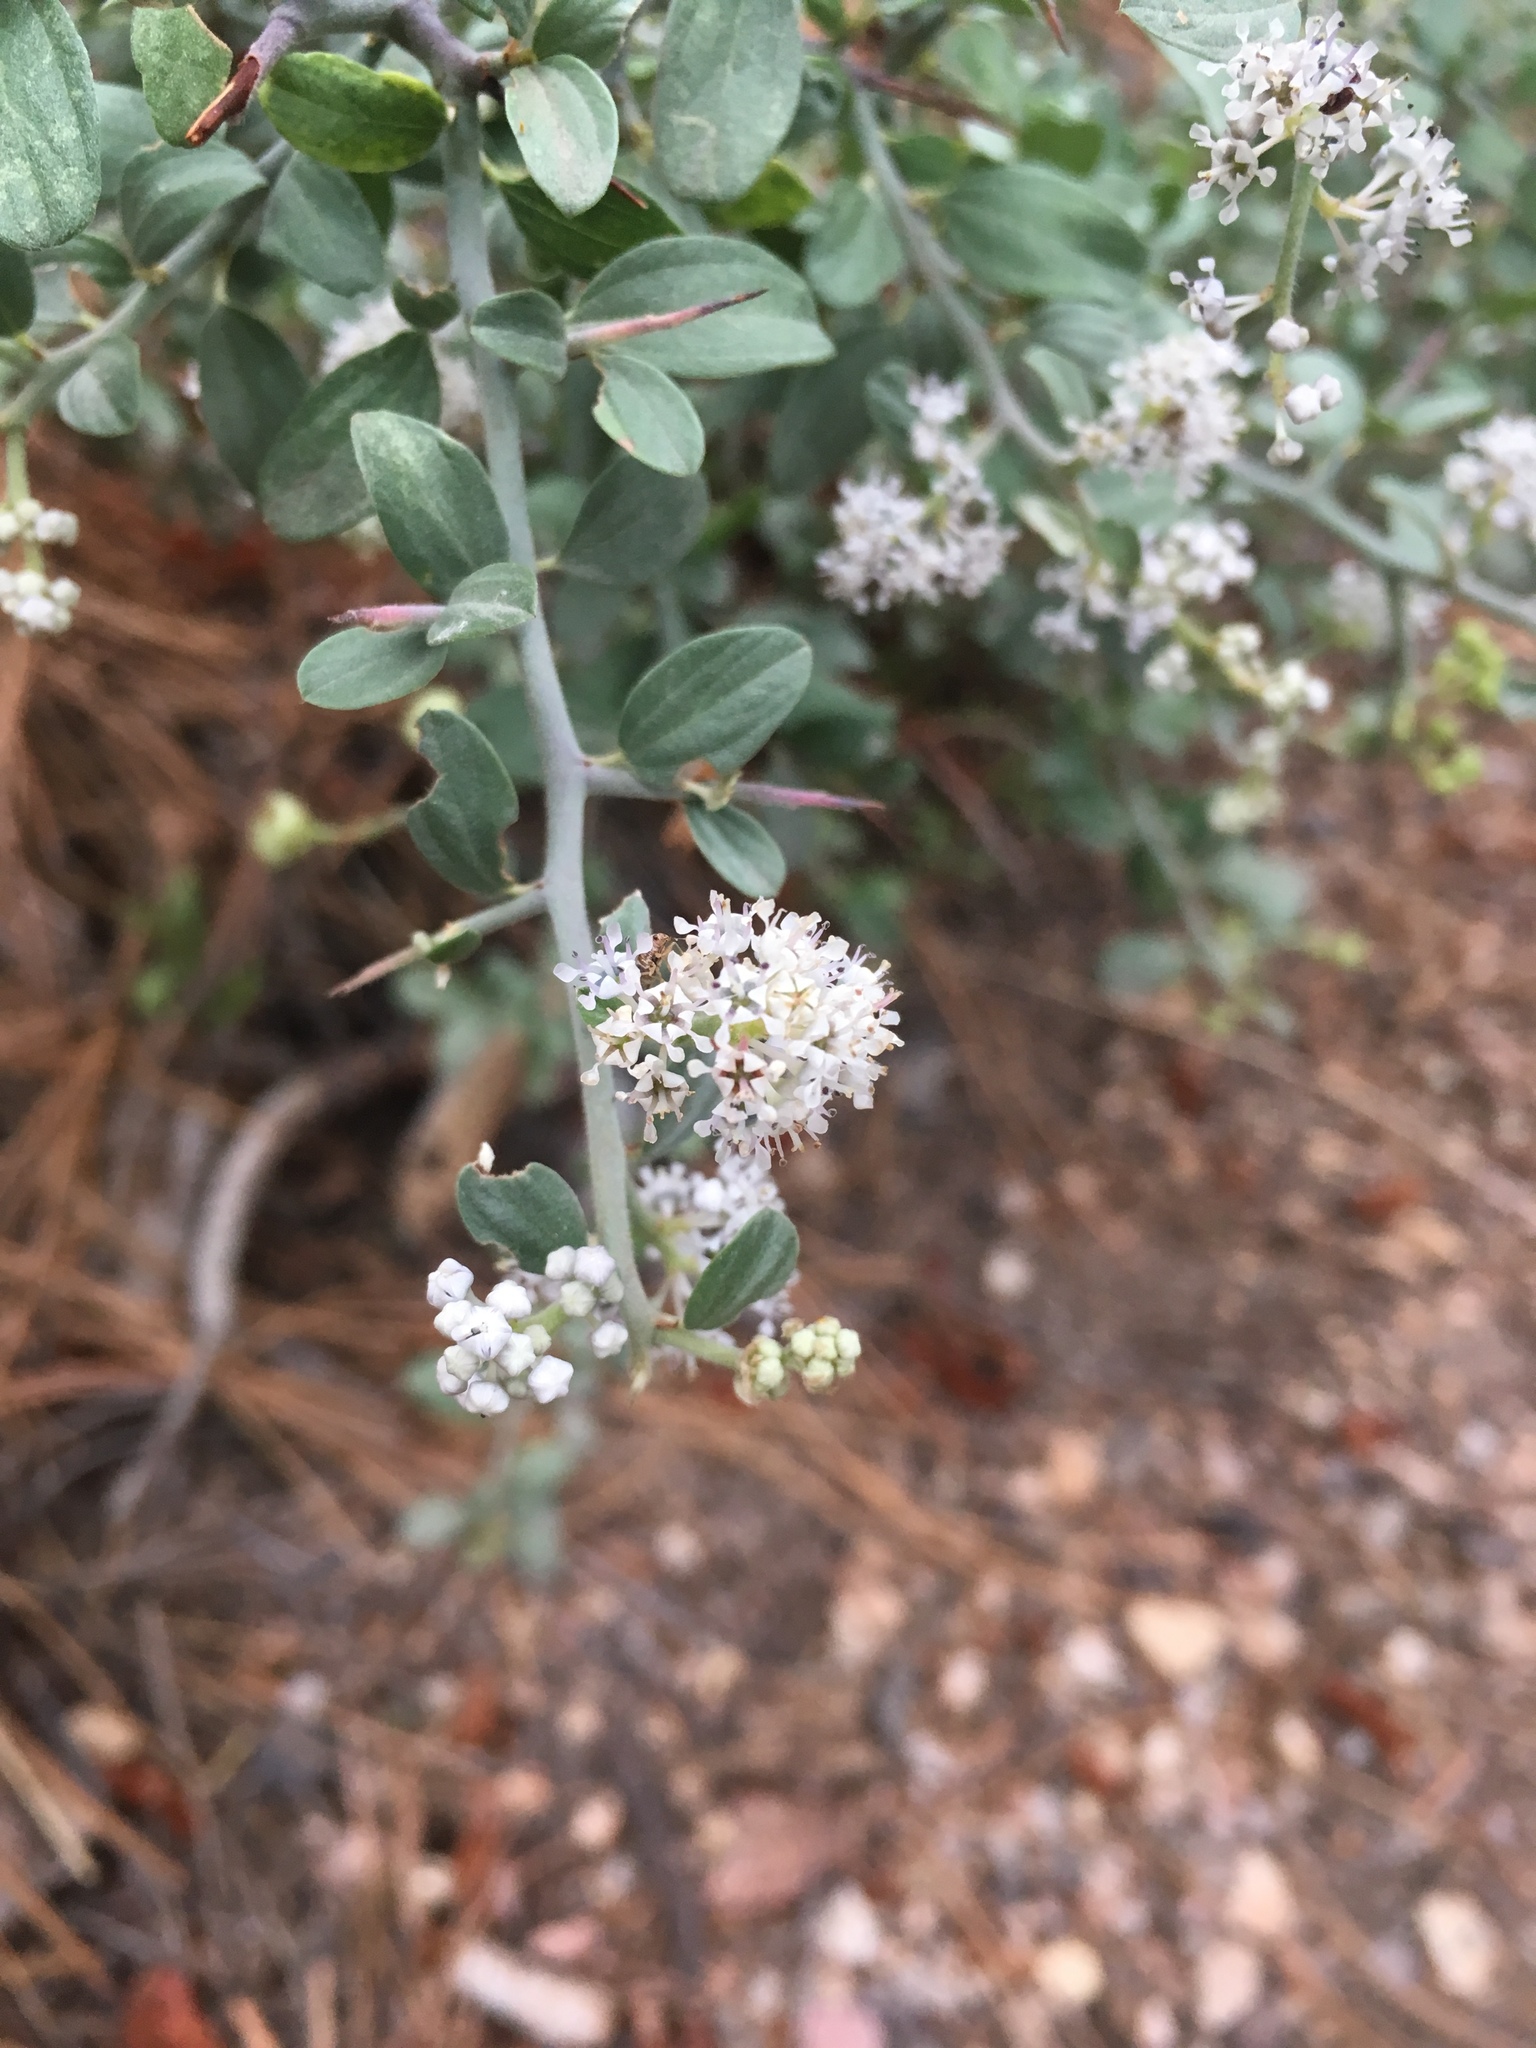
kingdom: Plantae
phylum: Tracheophyta
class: Magnoliopsida
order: Rosales
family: Rhamnaceae
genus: Ceanothus
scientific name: Ceanothus fendleri
